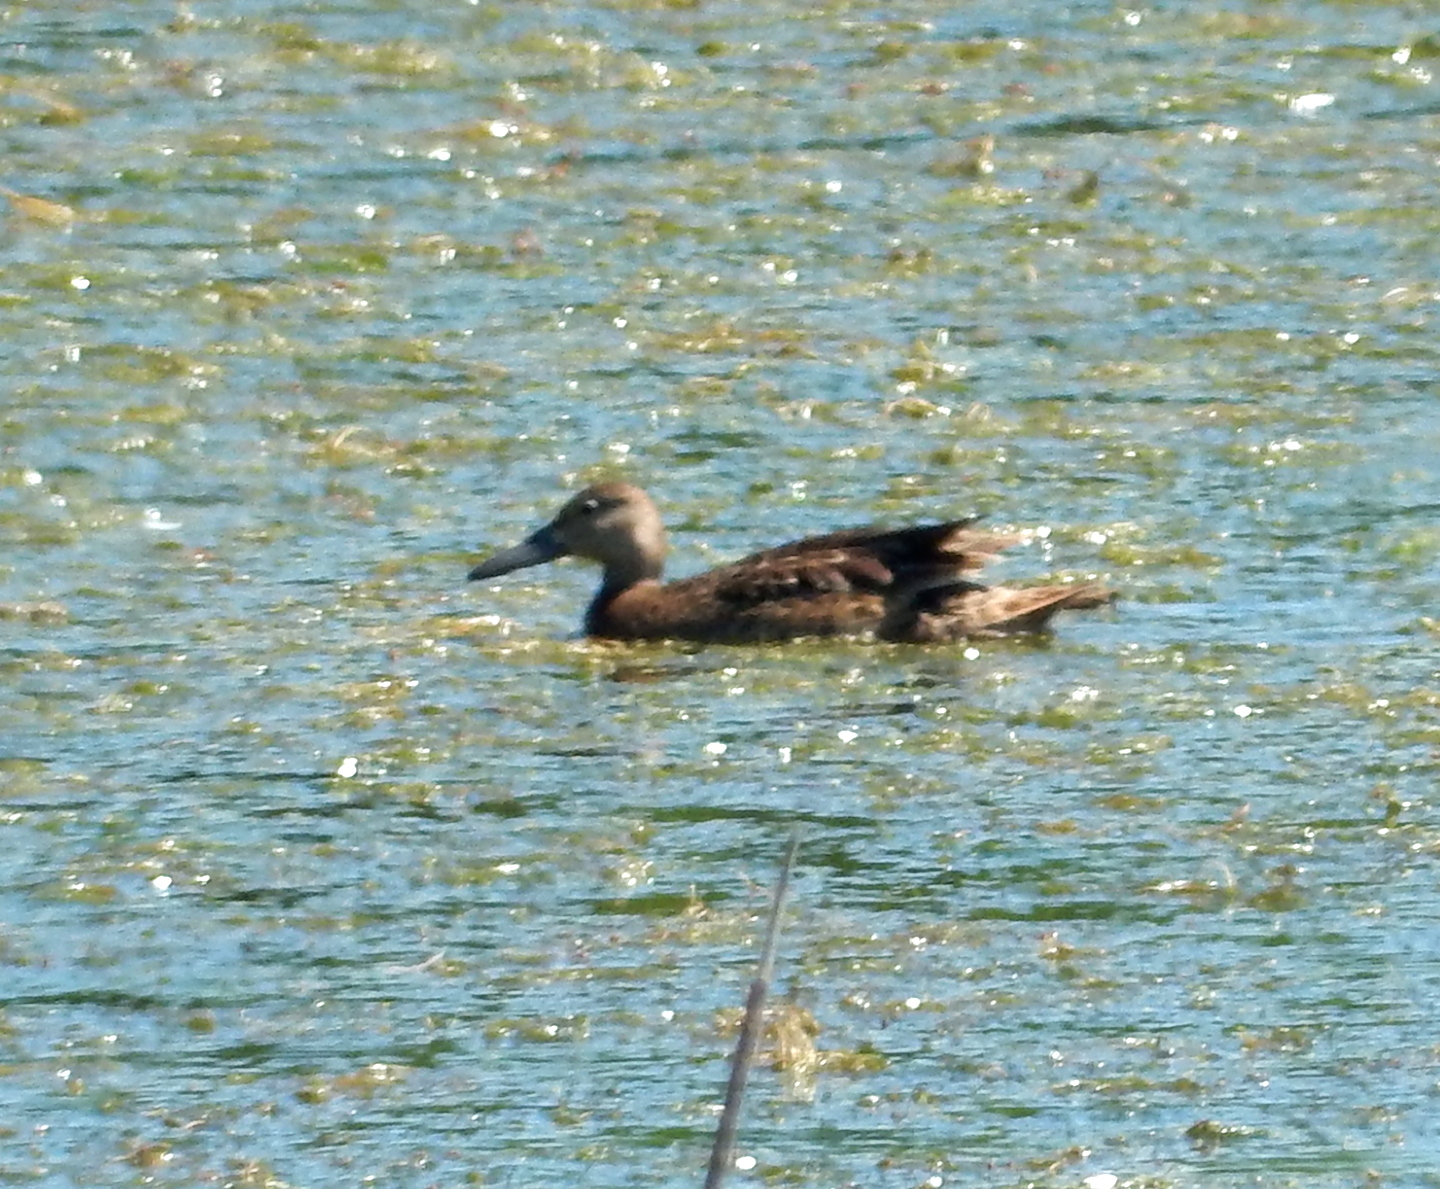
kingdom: Animalia
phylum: Chordata
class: Aves
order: Anseriformes
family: Anatidae
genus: Spatula
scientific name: Spatula cyanoptera
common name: Cinnamon teal
